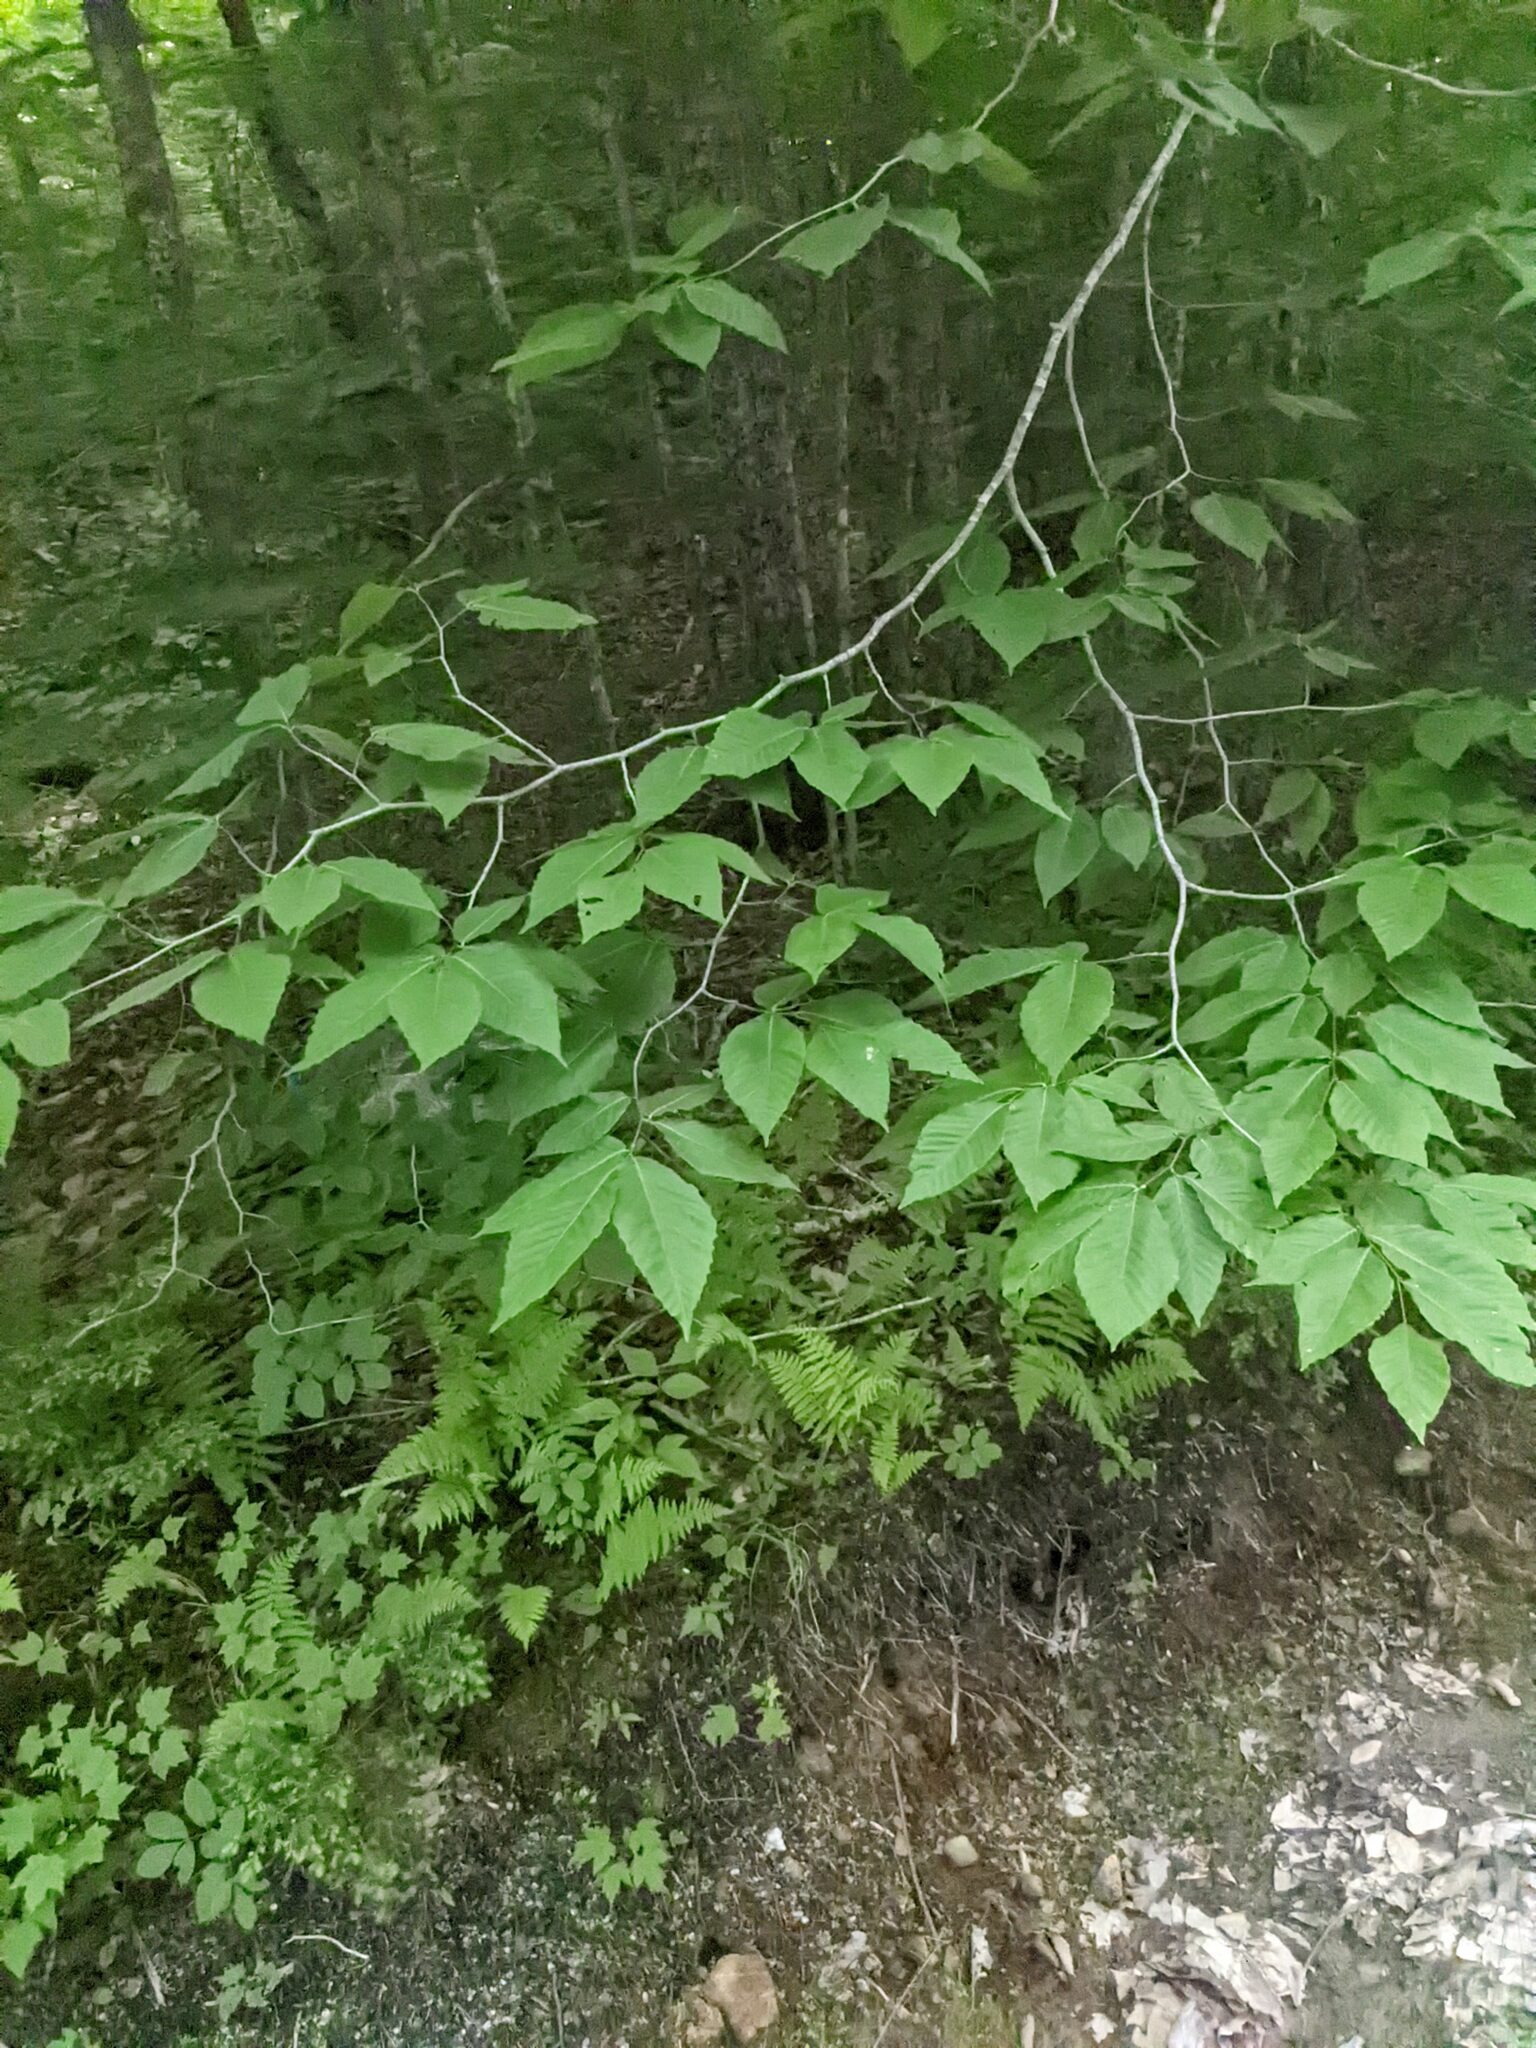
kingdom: Plantae
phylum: Tracheophyta
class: Magnoliopsida
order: Fagales
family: Fagaceae
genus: Fagus
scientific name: Fagus grandifolia
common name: American beech
